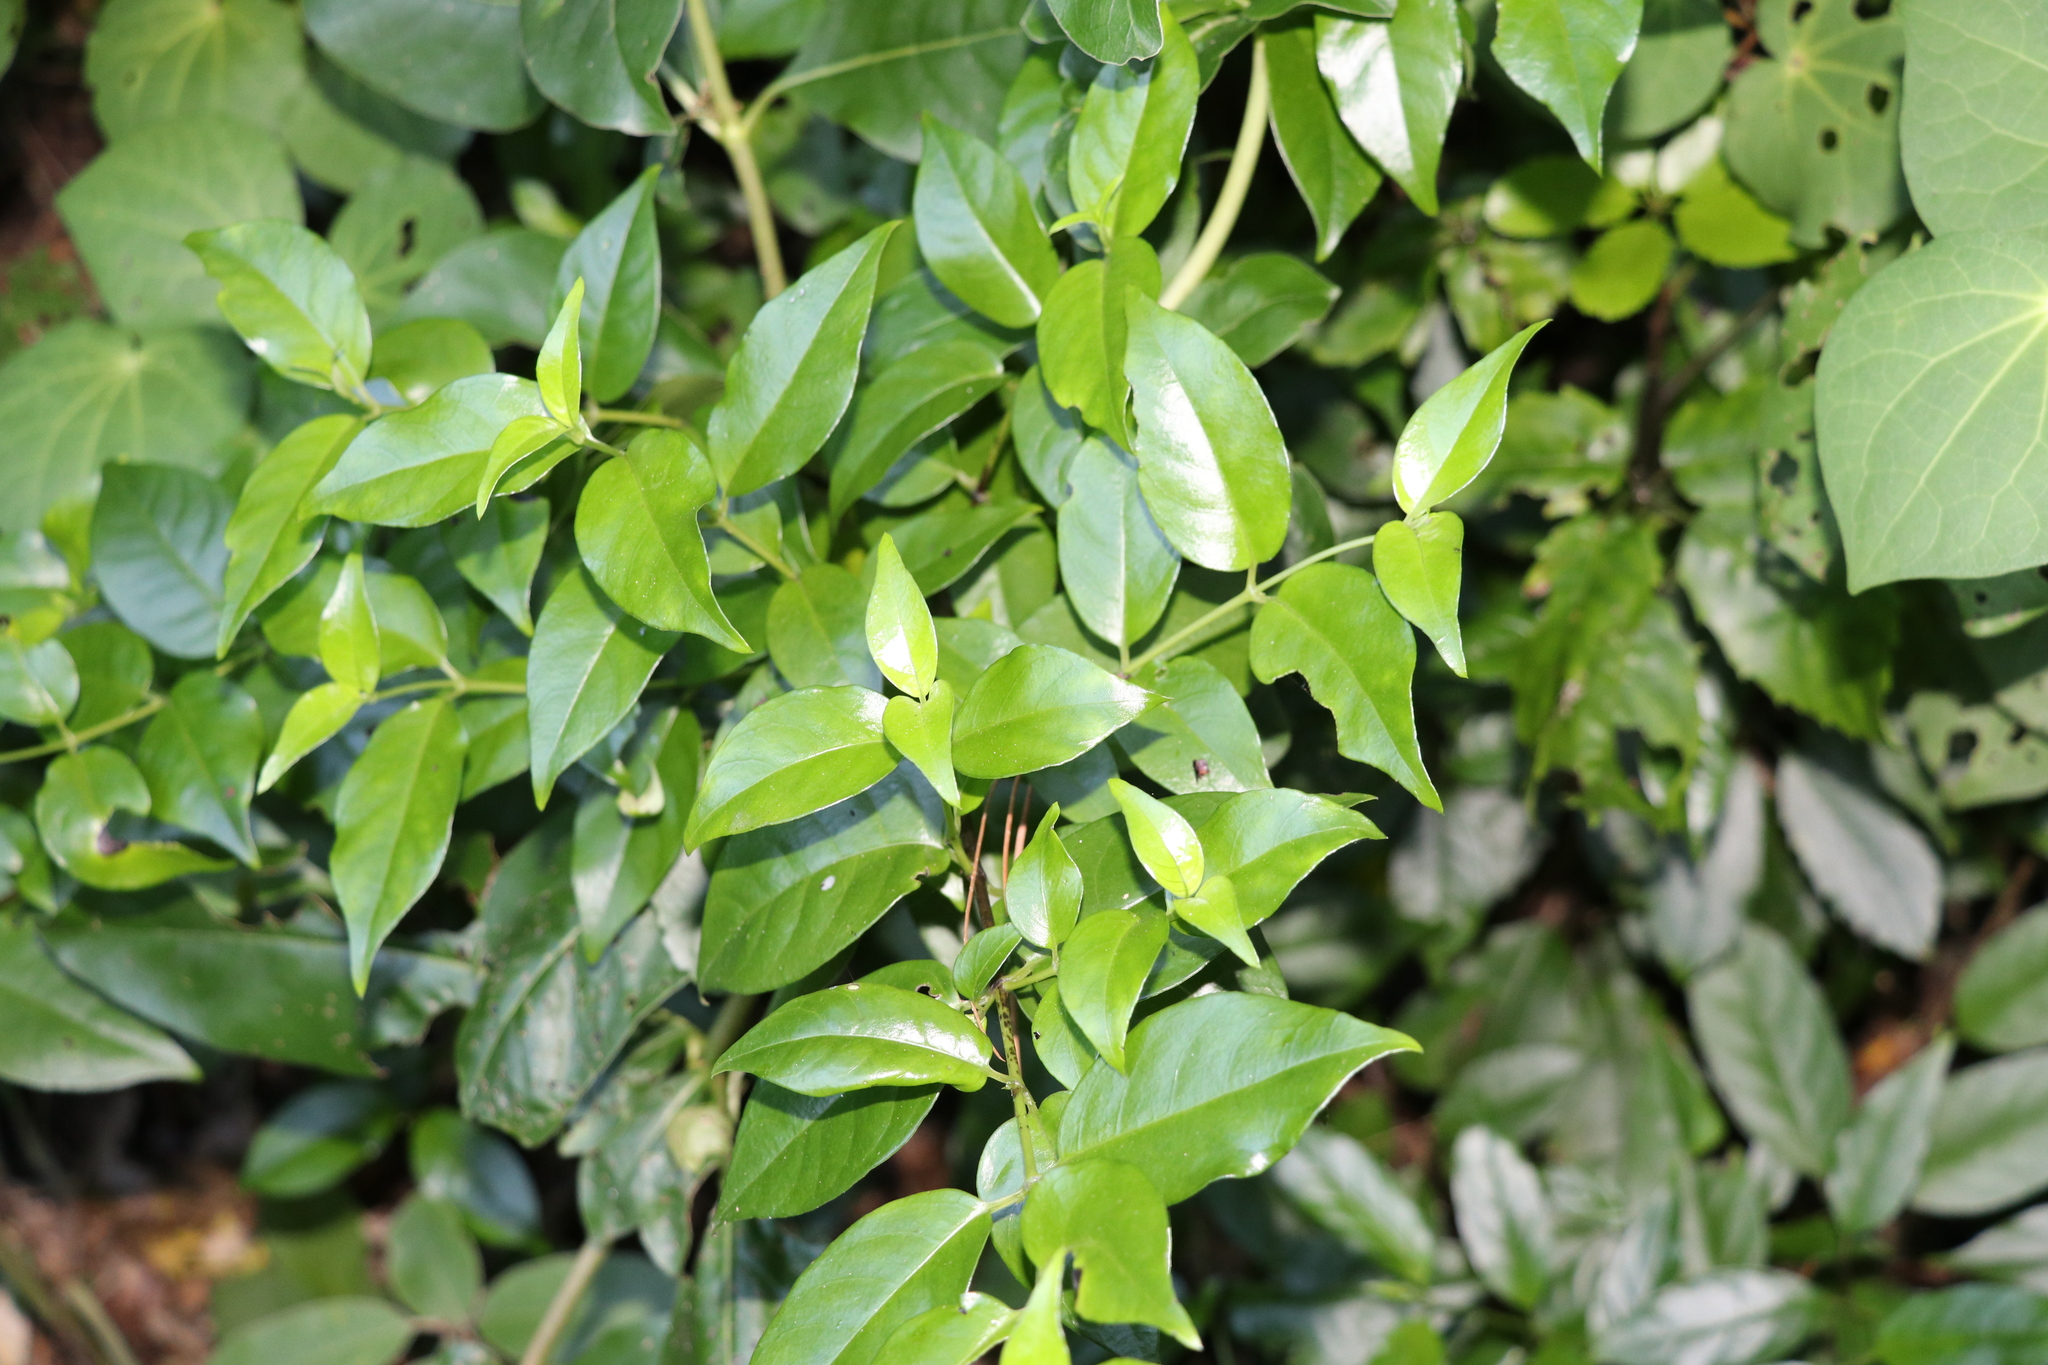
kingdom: Plantae
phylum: Tracheophyta
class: Magnoliopsida
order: Gentianales
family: Loganiaceae
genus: Geniostoma
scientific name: Geniostoma ligustrifolium
